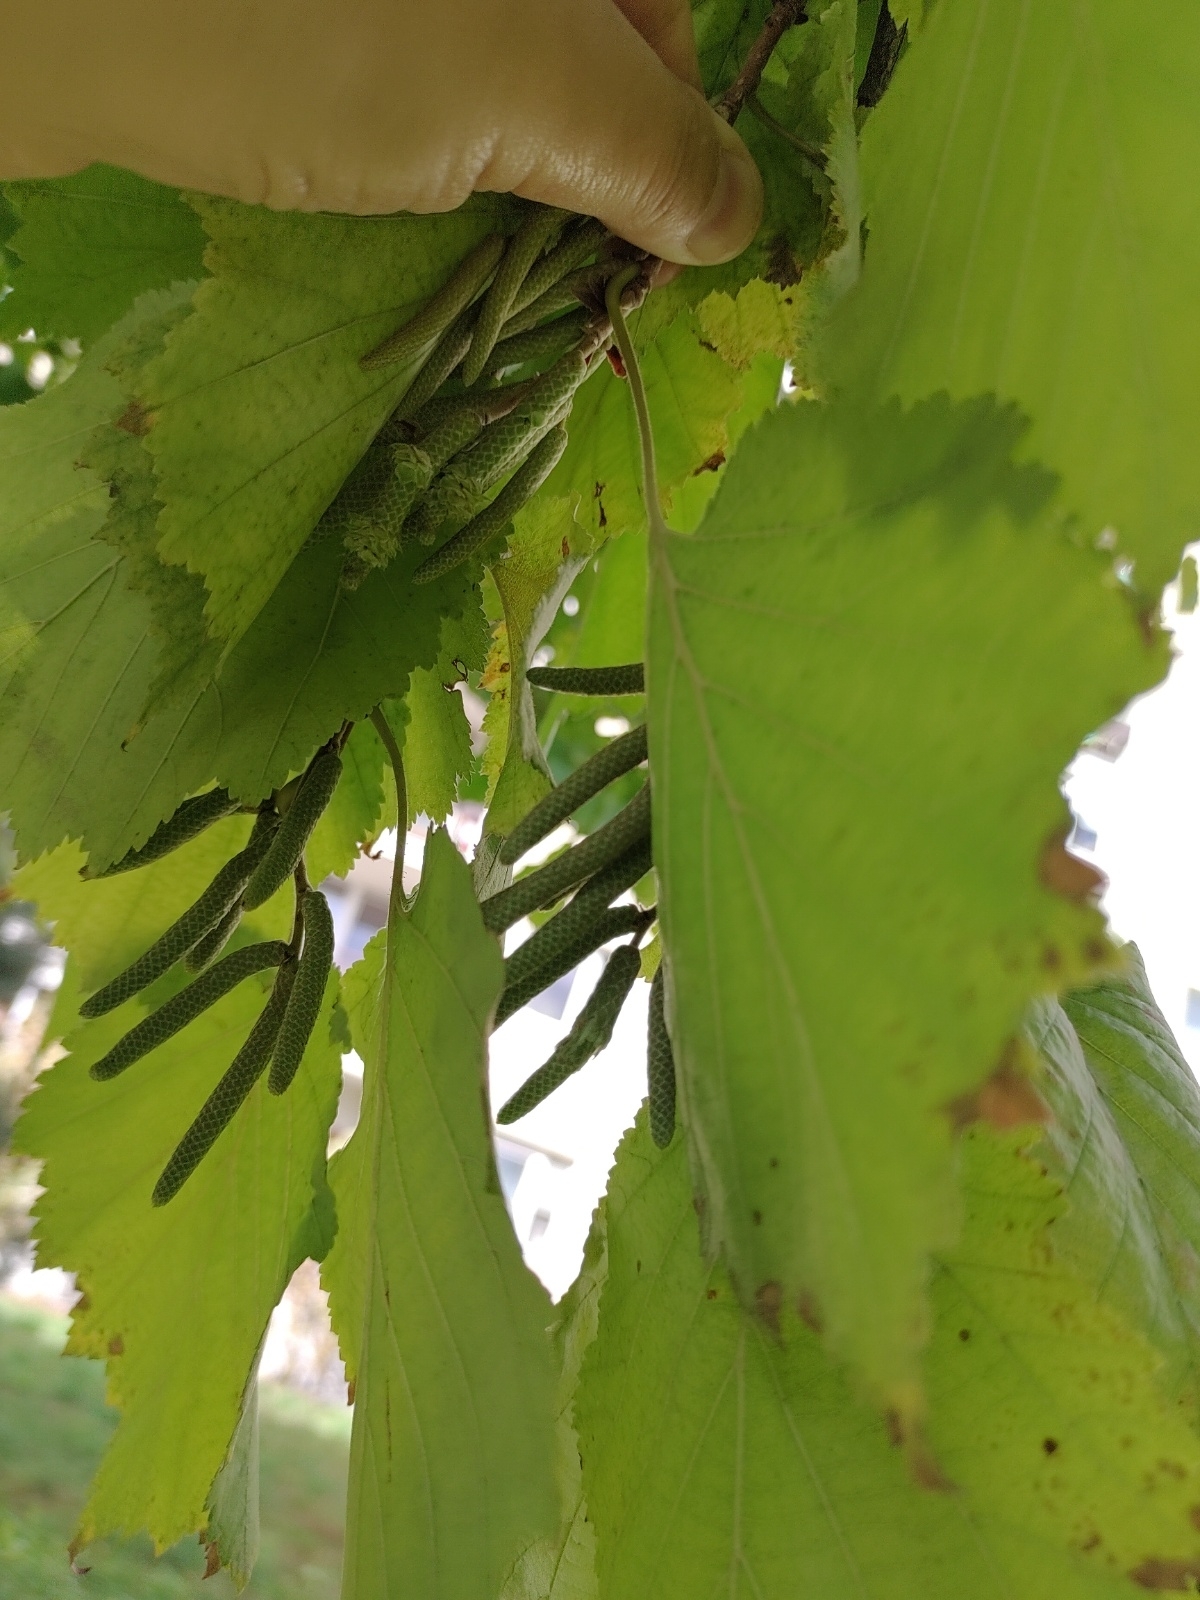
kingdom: Plantae
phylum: Tracheophyta
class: Magnoliopsida
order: Fagales
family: Betulaceae
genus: Corylus
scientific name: Corylus colurna
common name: Turkish hazel
